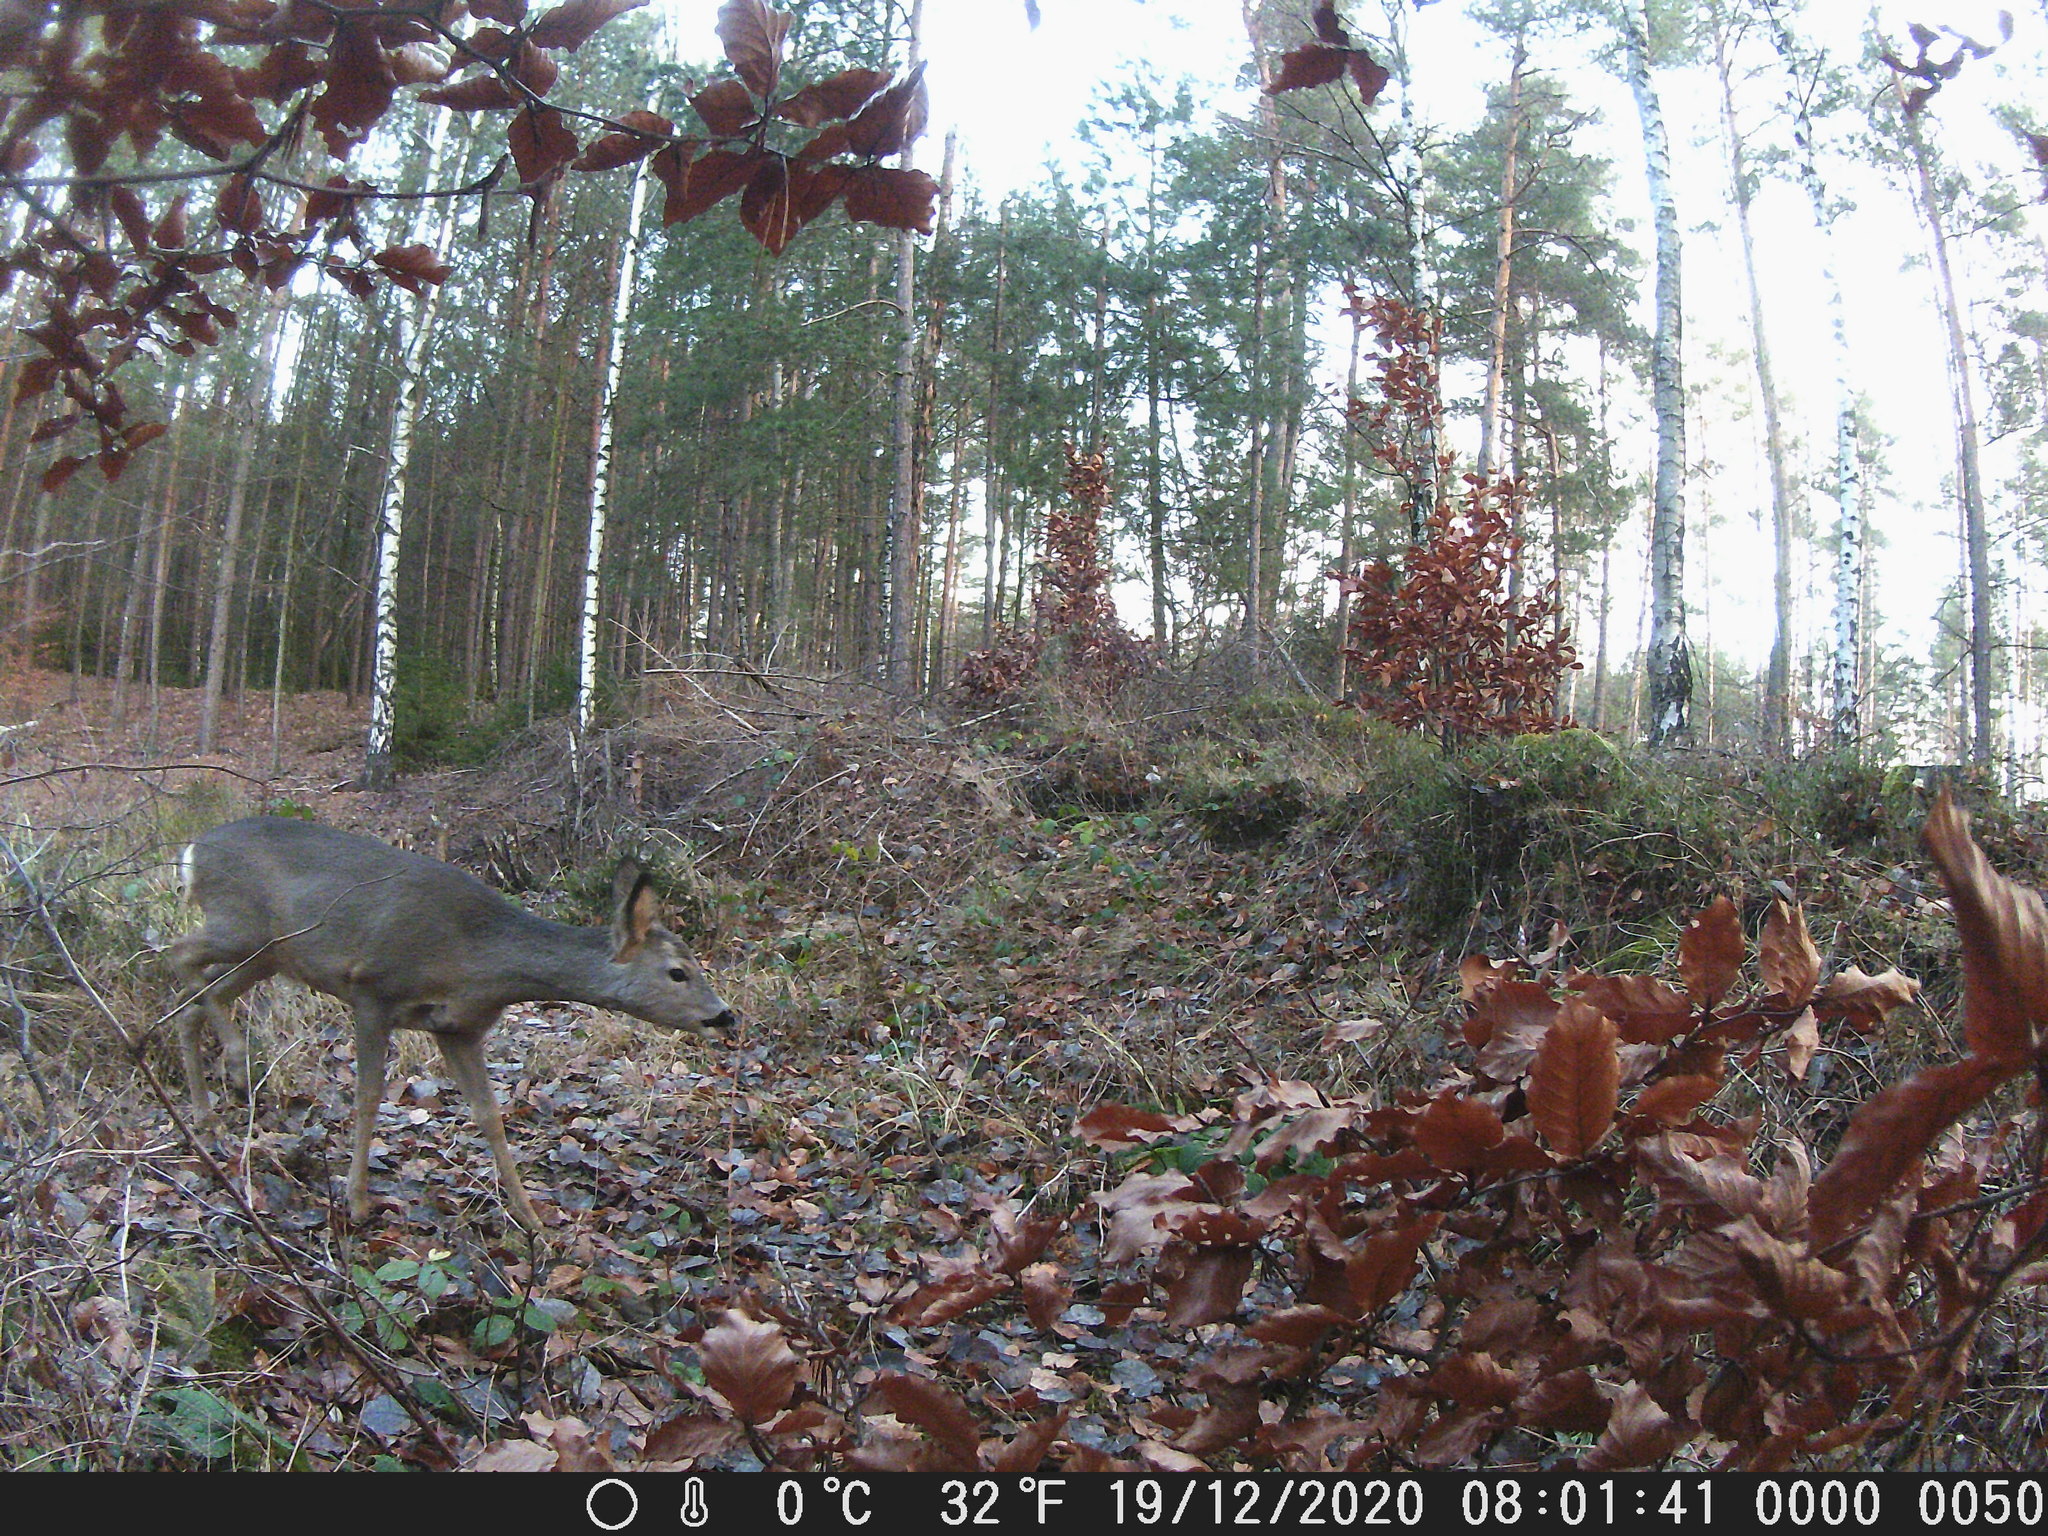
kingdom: Animalia
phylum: Chordata
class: Mammalia
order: Artiodactyla
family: Cervidae
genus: Capreolus
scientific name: Capreolus capreolus
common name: Western roe deer
